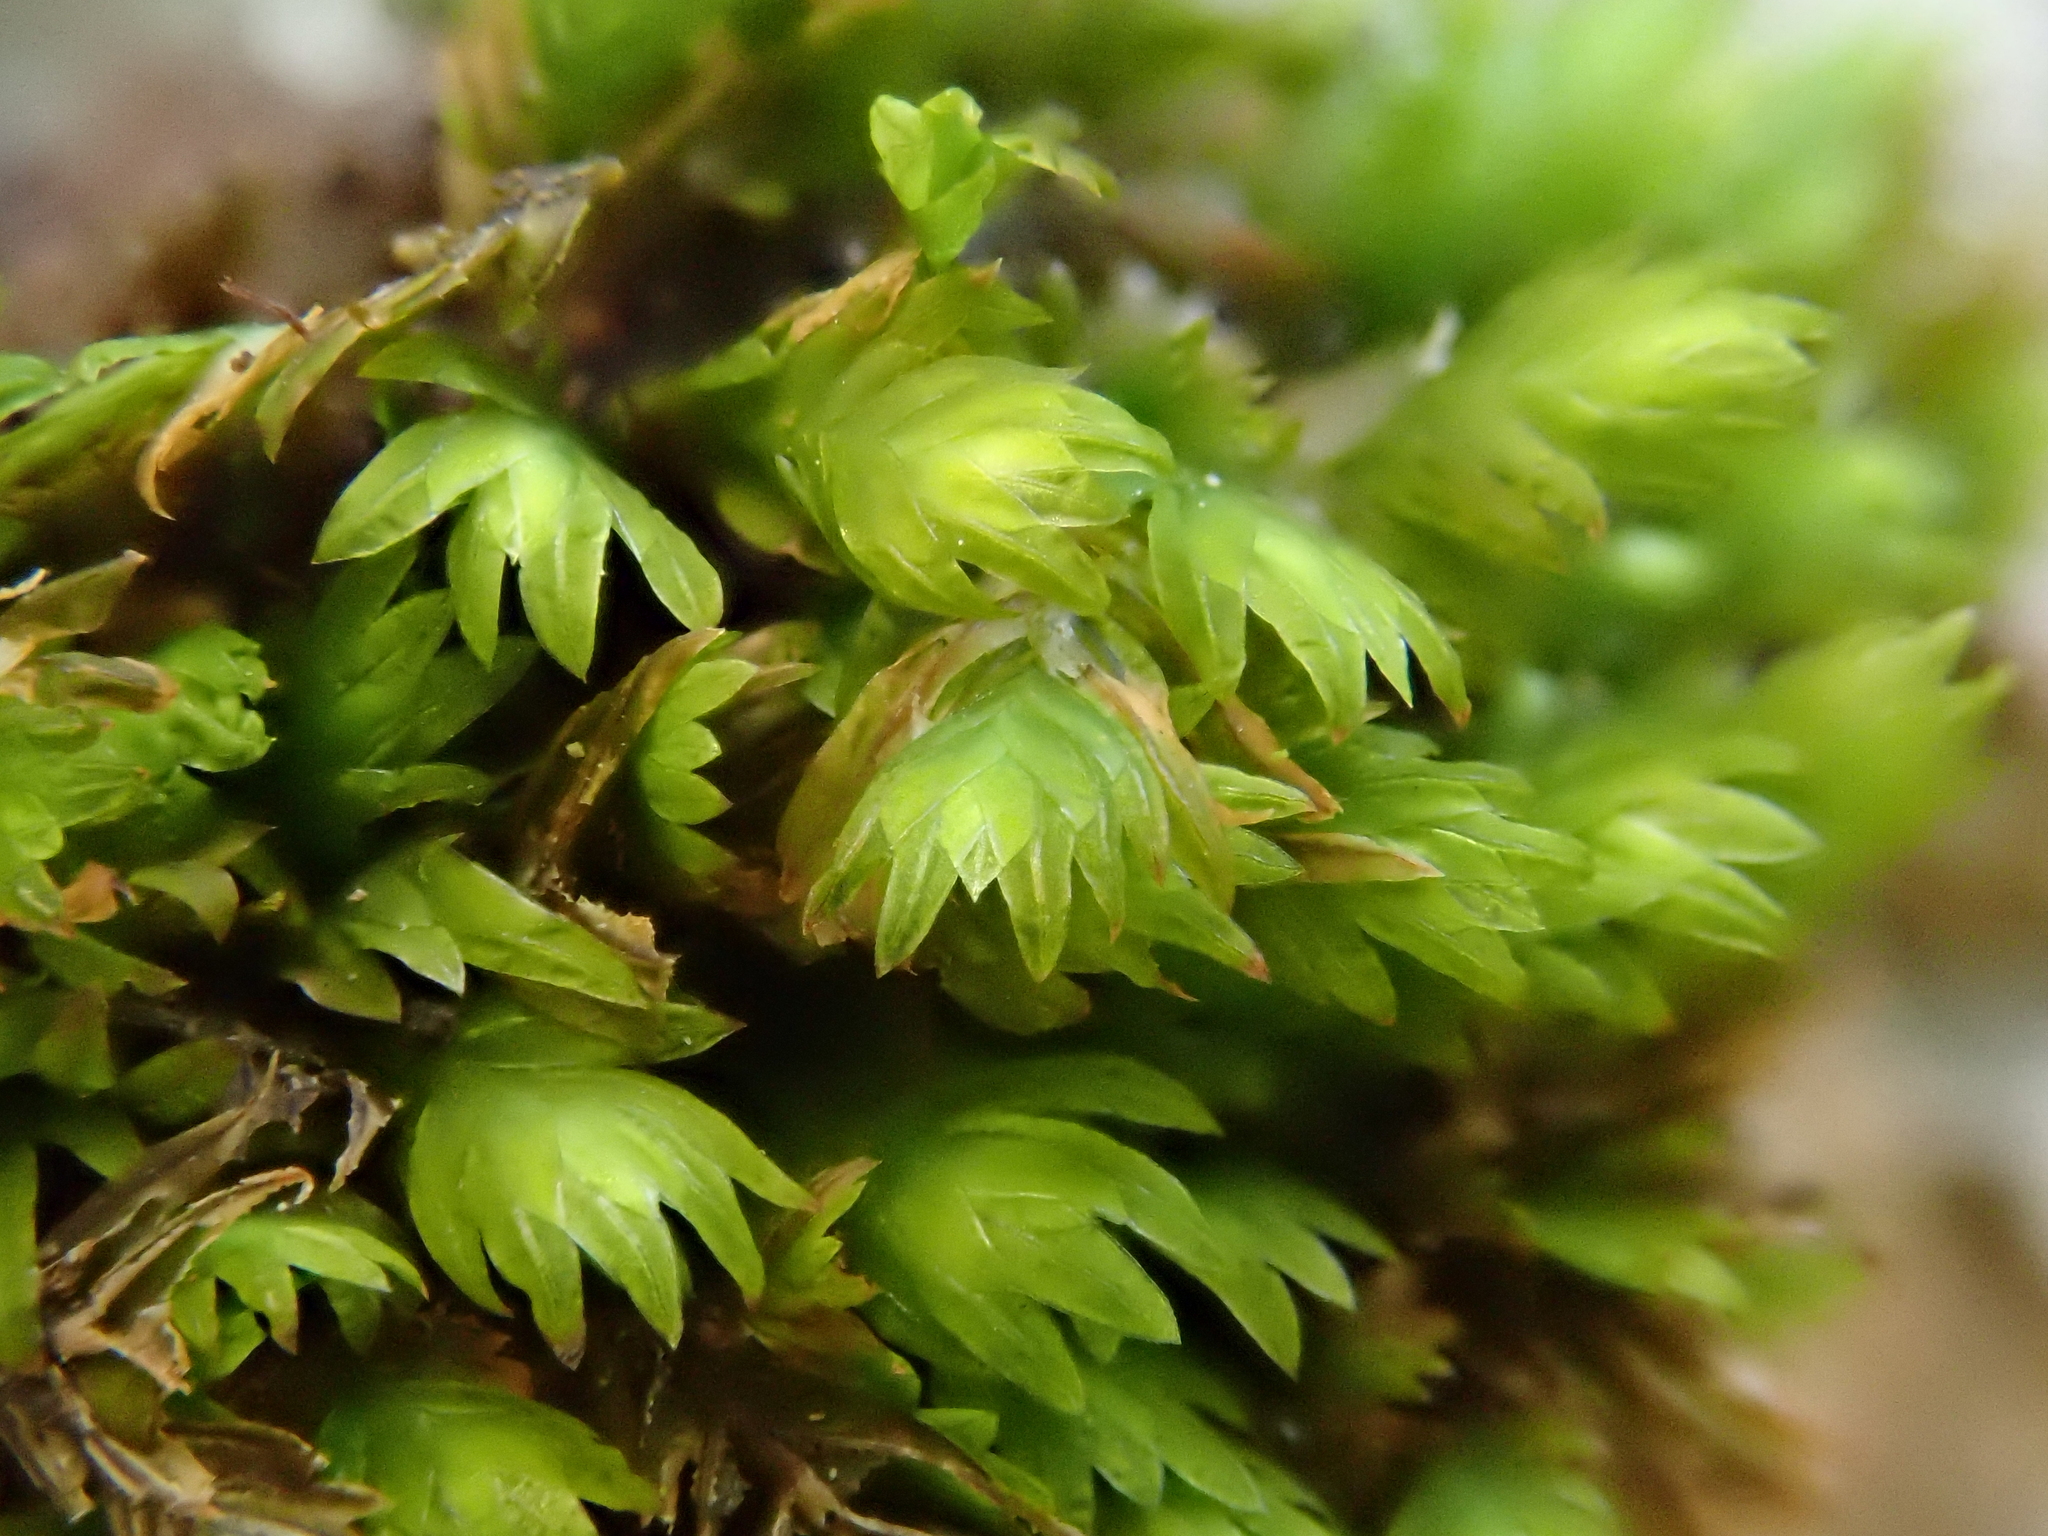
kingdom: Plantae
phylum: Bryophyta
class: Bryopsida
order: Dicranales
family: Fissidentaceae
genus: Fissidens
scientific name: Fissidens dubius
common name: Rock pocket moss
